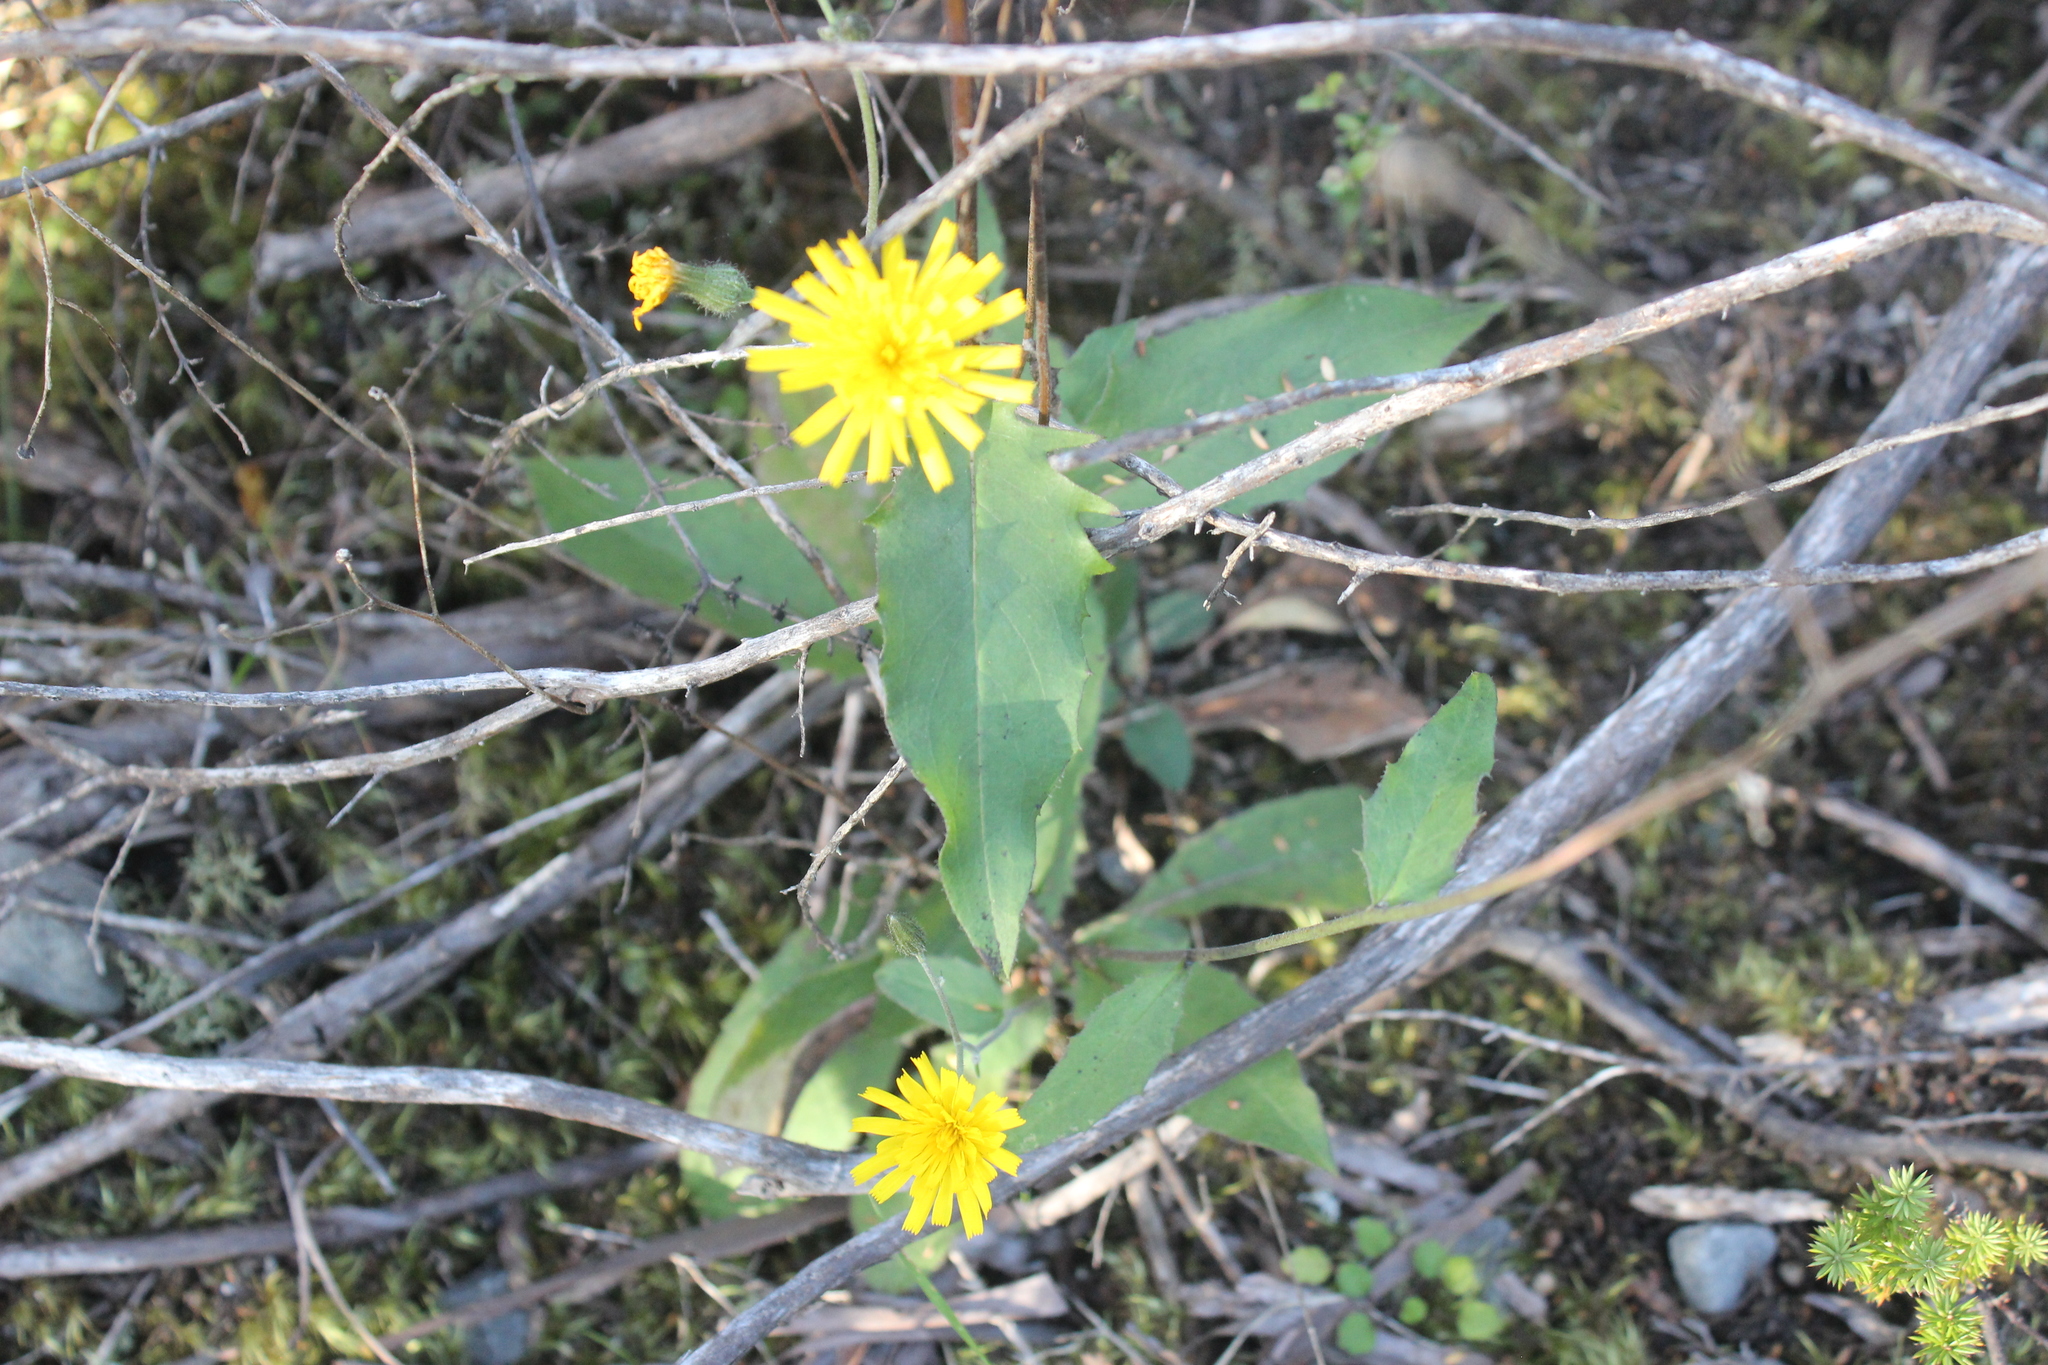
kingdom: Plantae
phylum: Tracheophyta
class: Magnoliopsida
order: Asterales
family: Asteraceae
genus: Hieracium
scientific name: Hieracium lepidulum
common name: Irregular-toothed hawkweed
